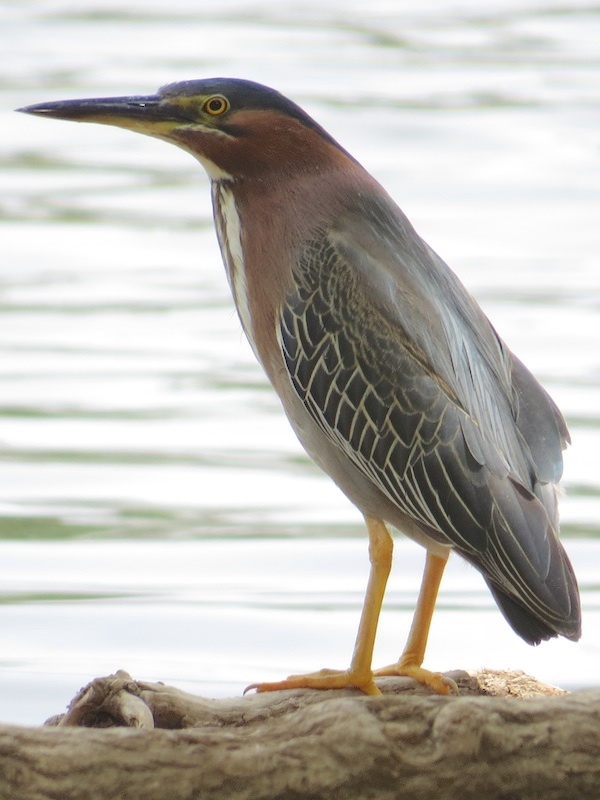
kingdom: Animalia
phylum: Chordata
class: Aves
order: Pelecaniformes
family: Ardeidae
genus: Butorides
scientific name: Butorides virescens
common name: Green heron
